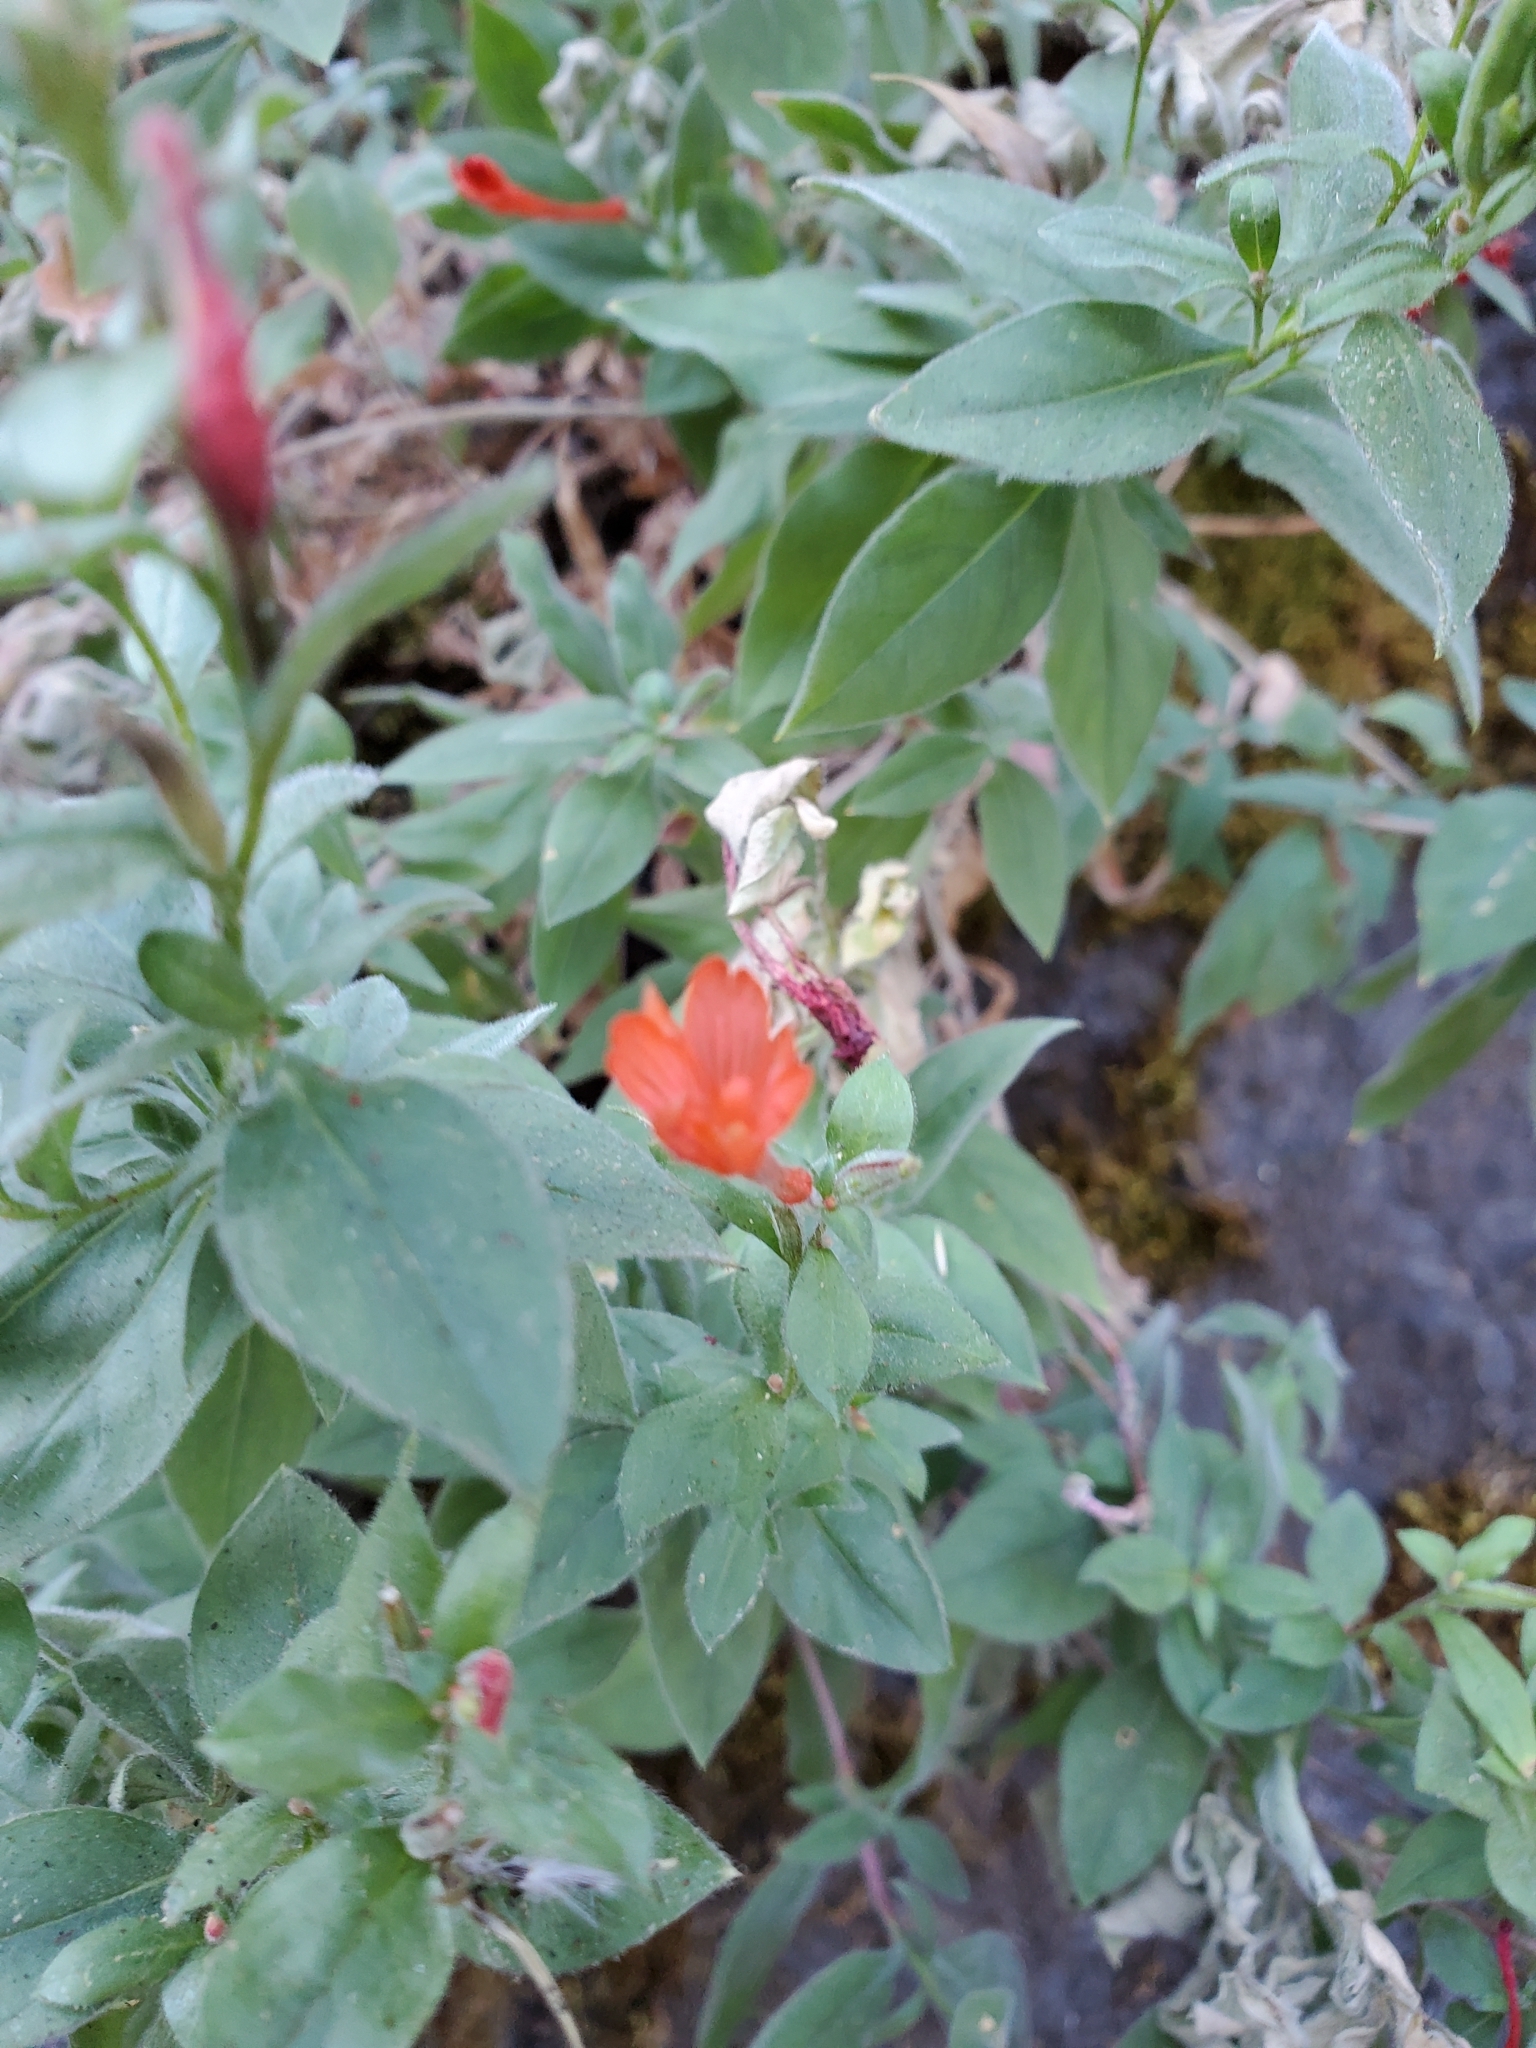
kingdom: Plantae
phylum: Tracheophyta
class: Magnoliopsida
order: Myrtales
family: Onagraceae
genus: Epilobium
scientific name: Epilobium canum
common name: California-fuchsia
